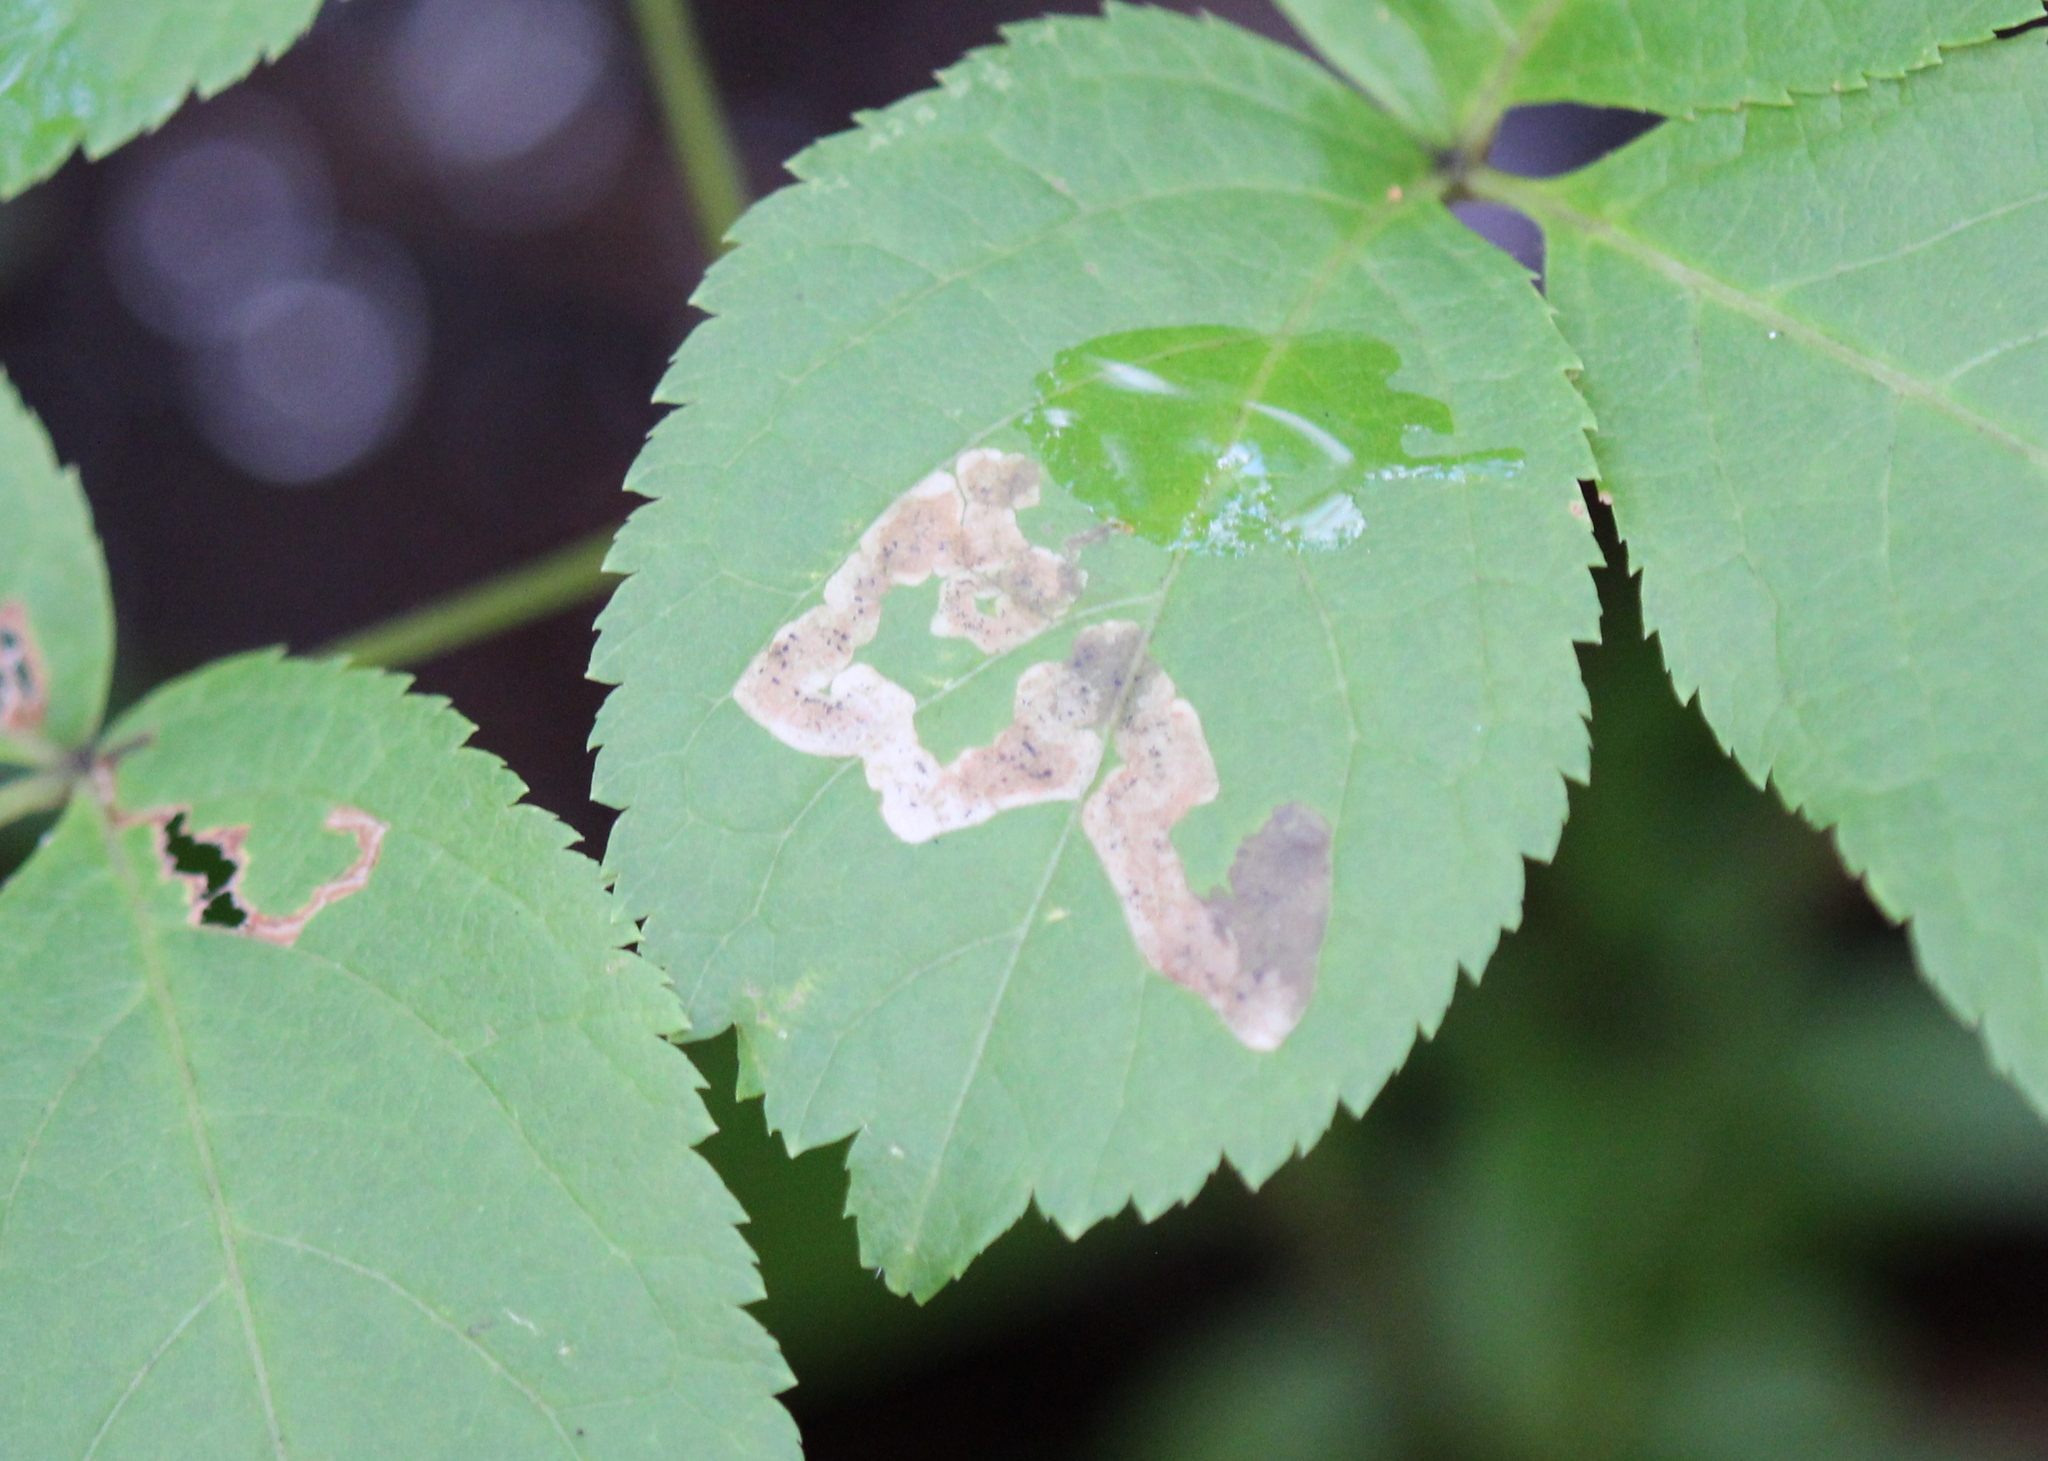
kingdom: Animalia
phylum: Arthropoda
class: Insecta
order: Diptera
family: Agromyzidae
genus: Phytomyza
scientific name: Phytomyza aralivora
